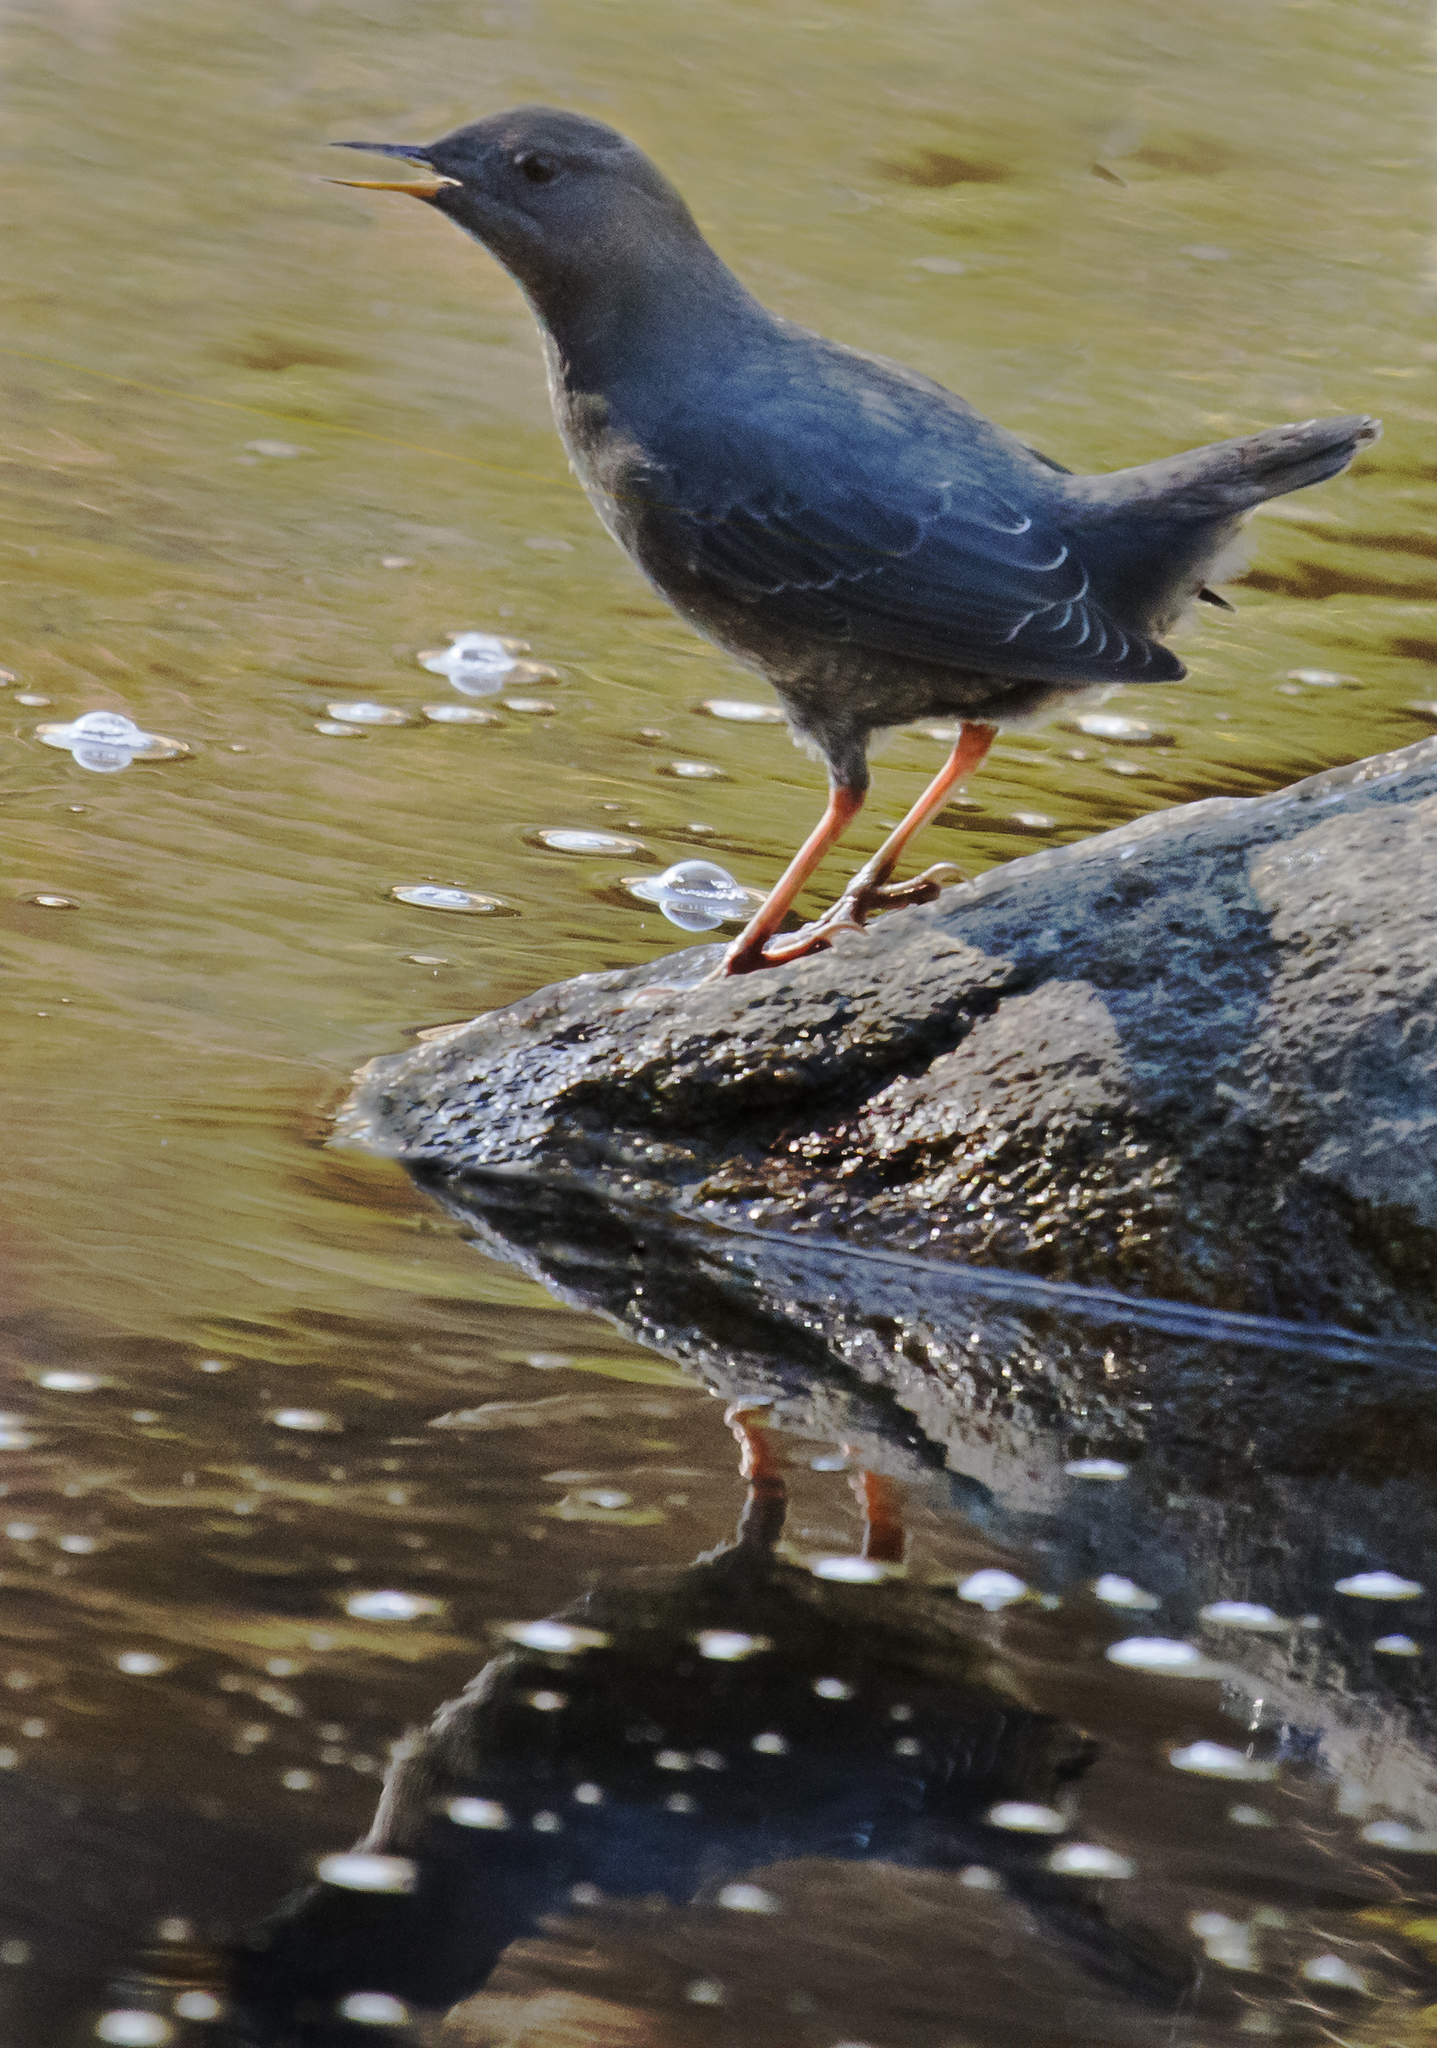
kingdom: Animalia
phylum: Chordata
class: Aves
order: Passeriformes
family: Cinclidae
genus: Cinclus
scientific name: Cinclus mexicanus
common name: American dipper
